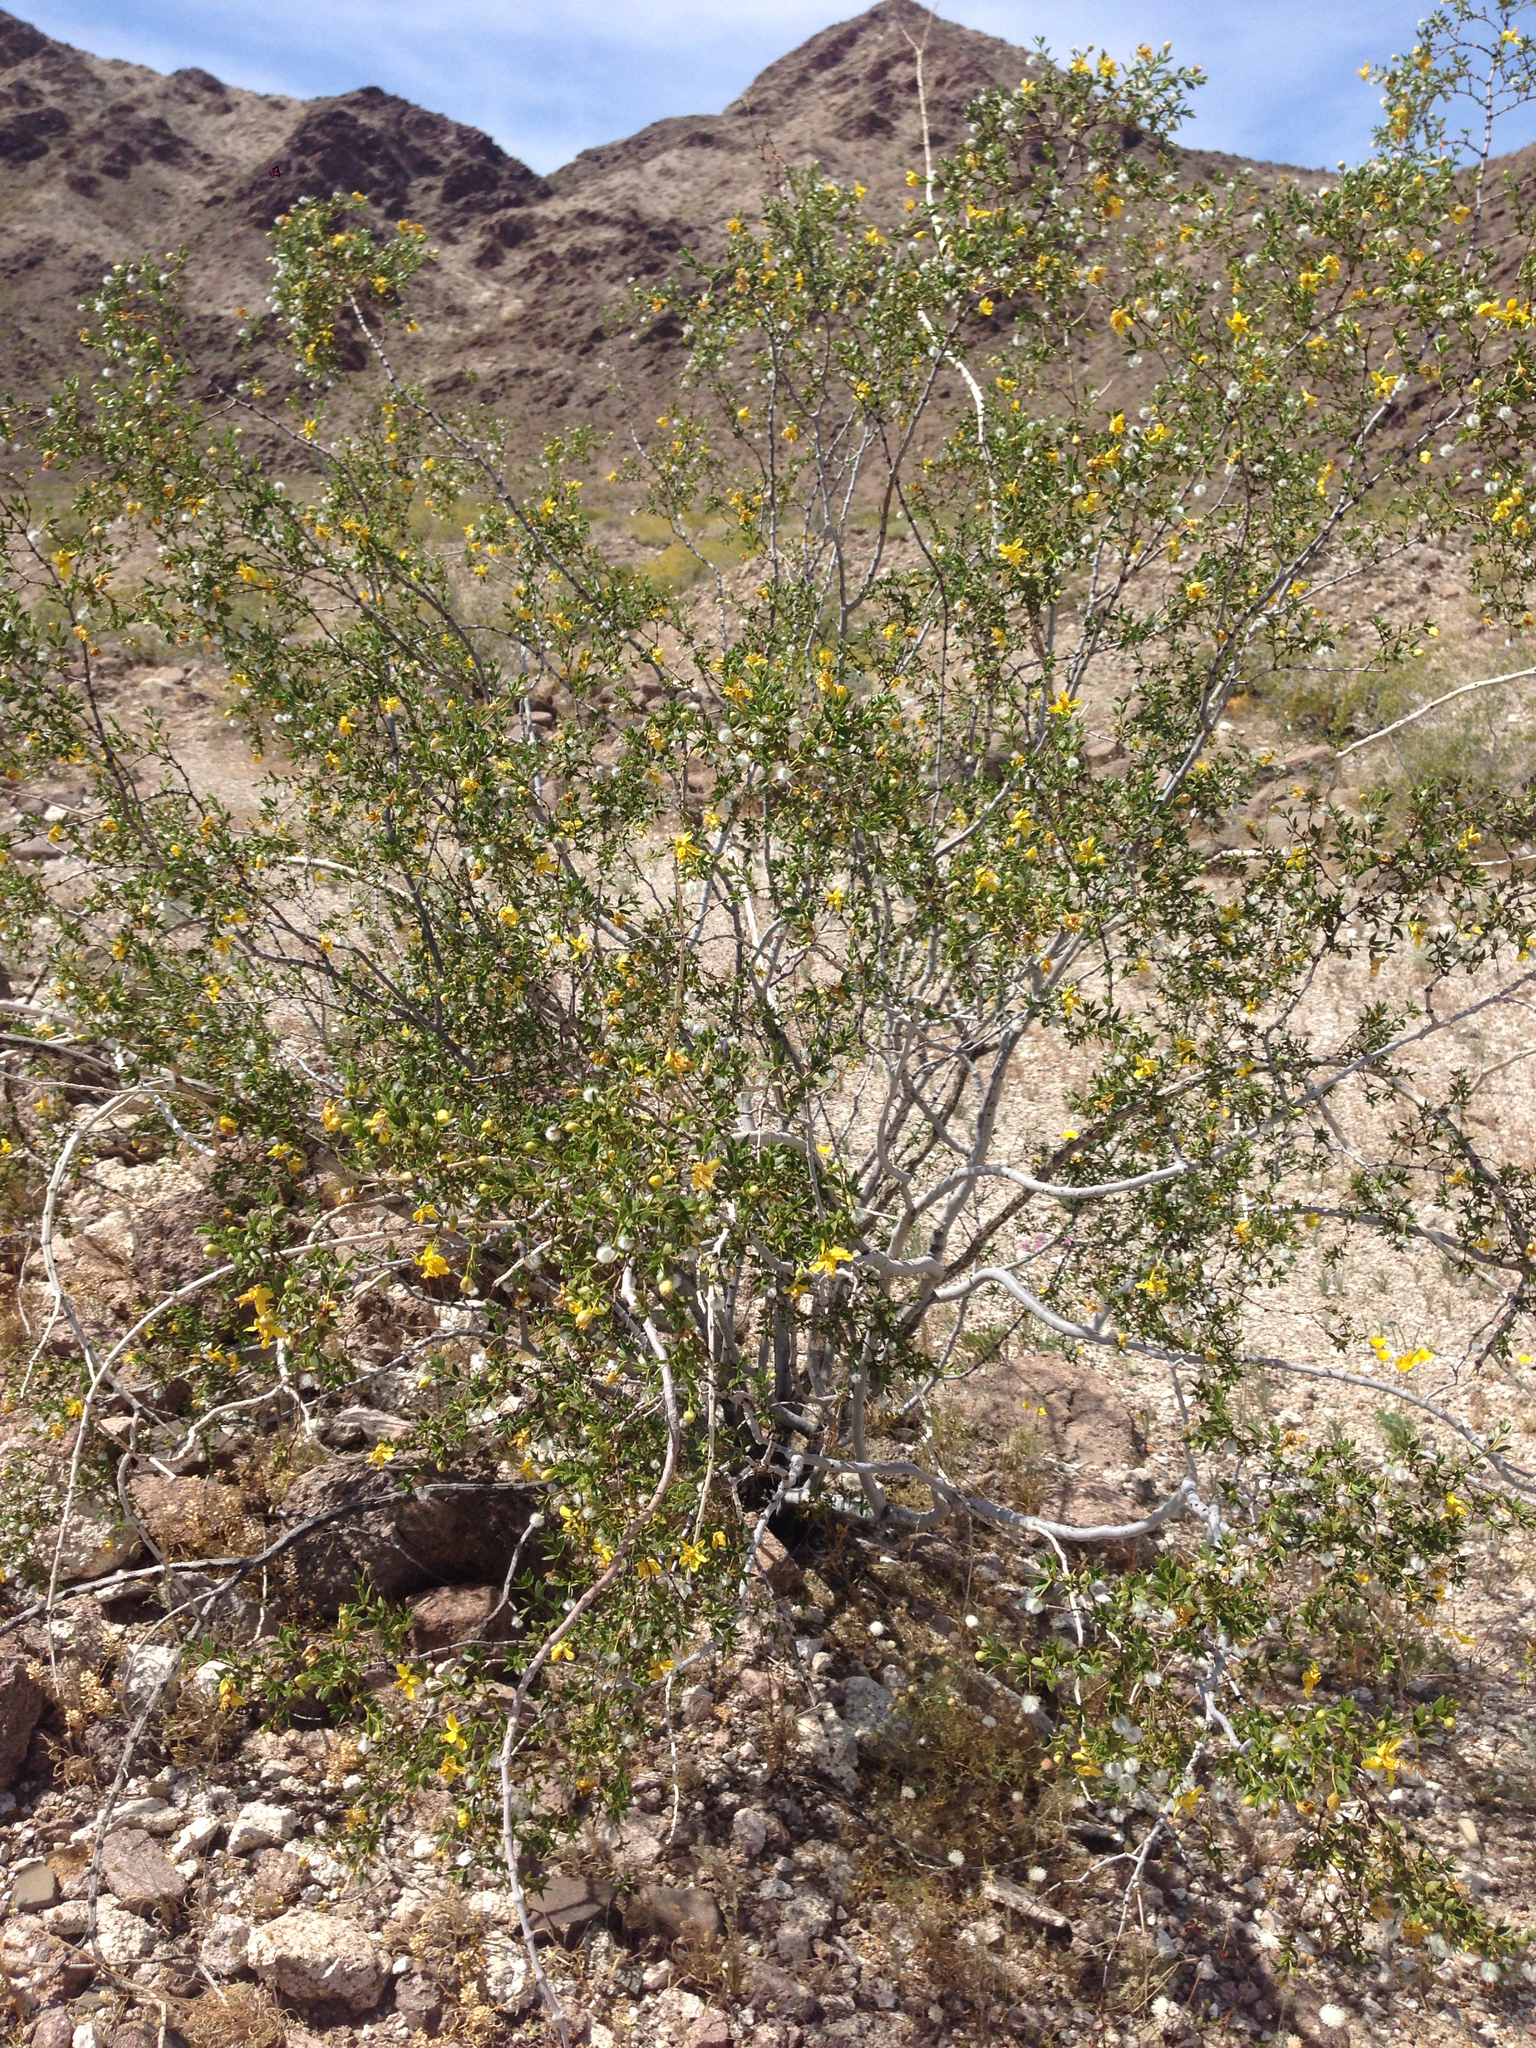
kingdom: Plantae
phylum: Tracheophyta
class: Magnoliopsida
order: Zygophyllales
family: Zygophyllaceae
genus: Larrea
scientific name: Larrea tridentata
